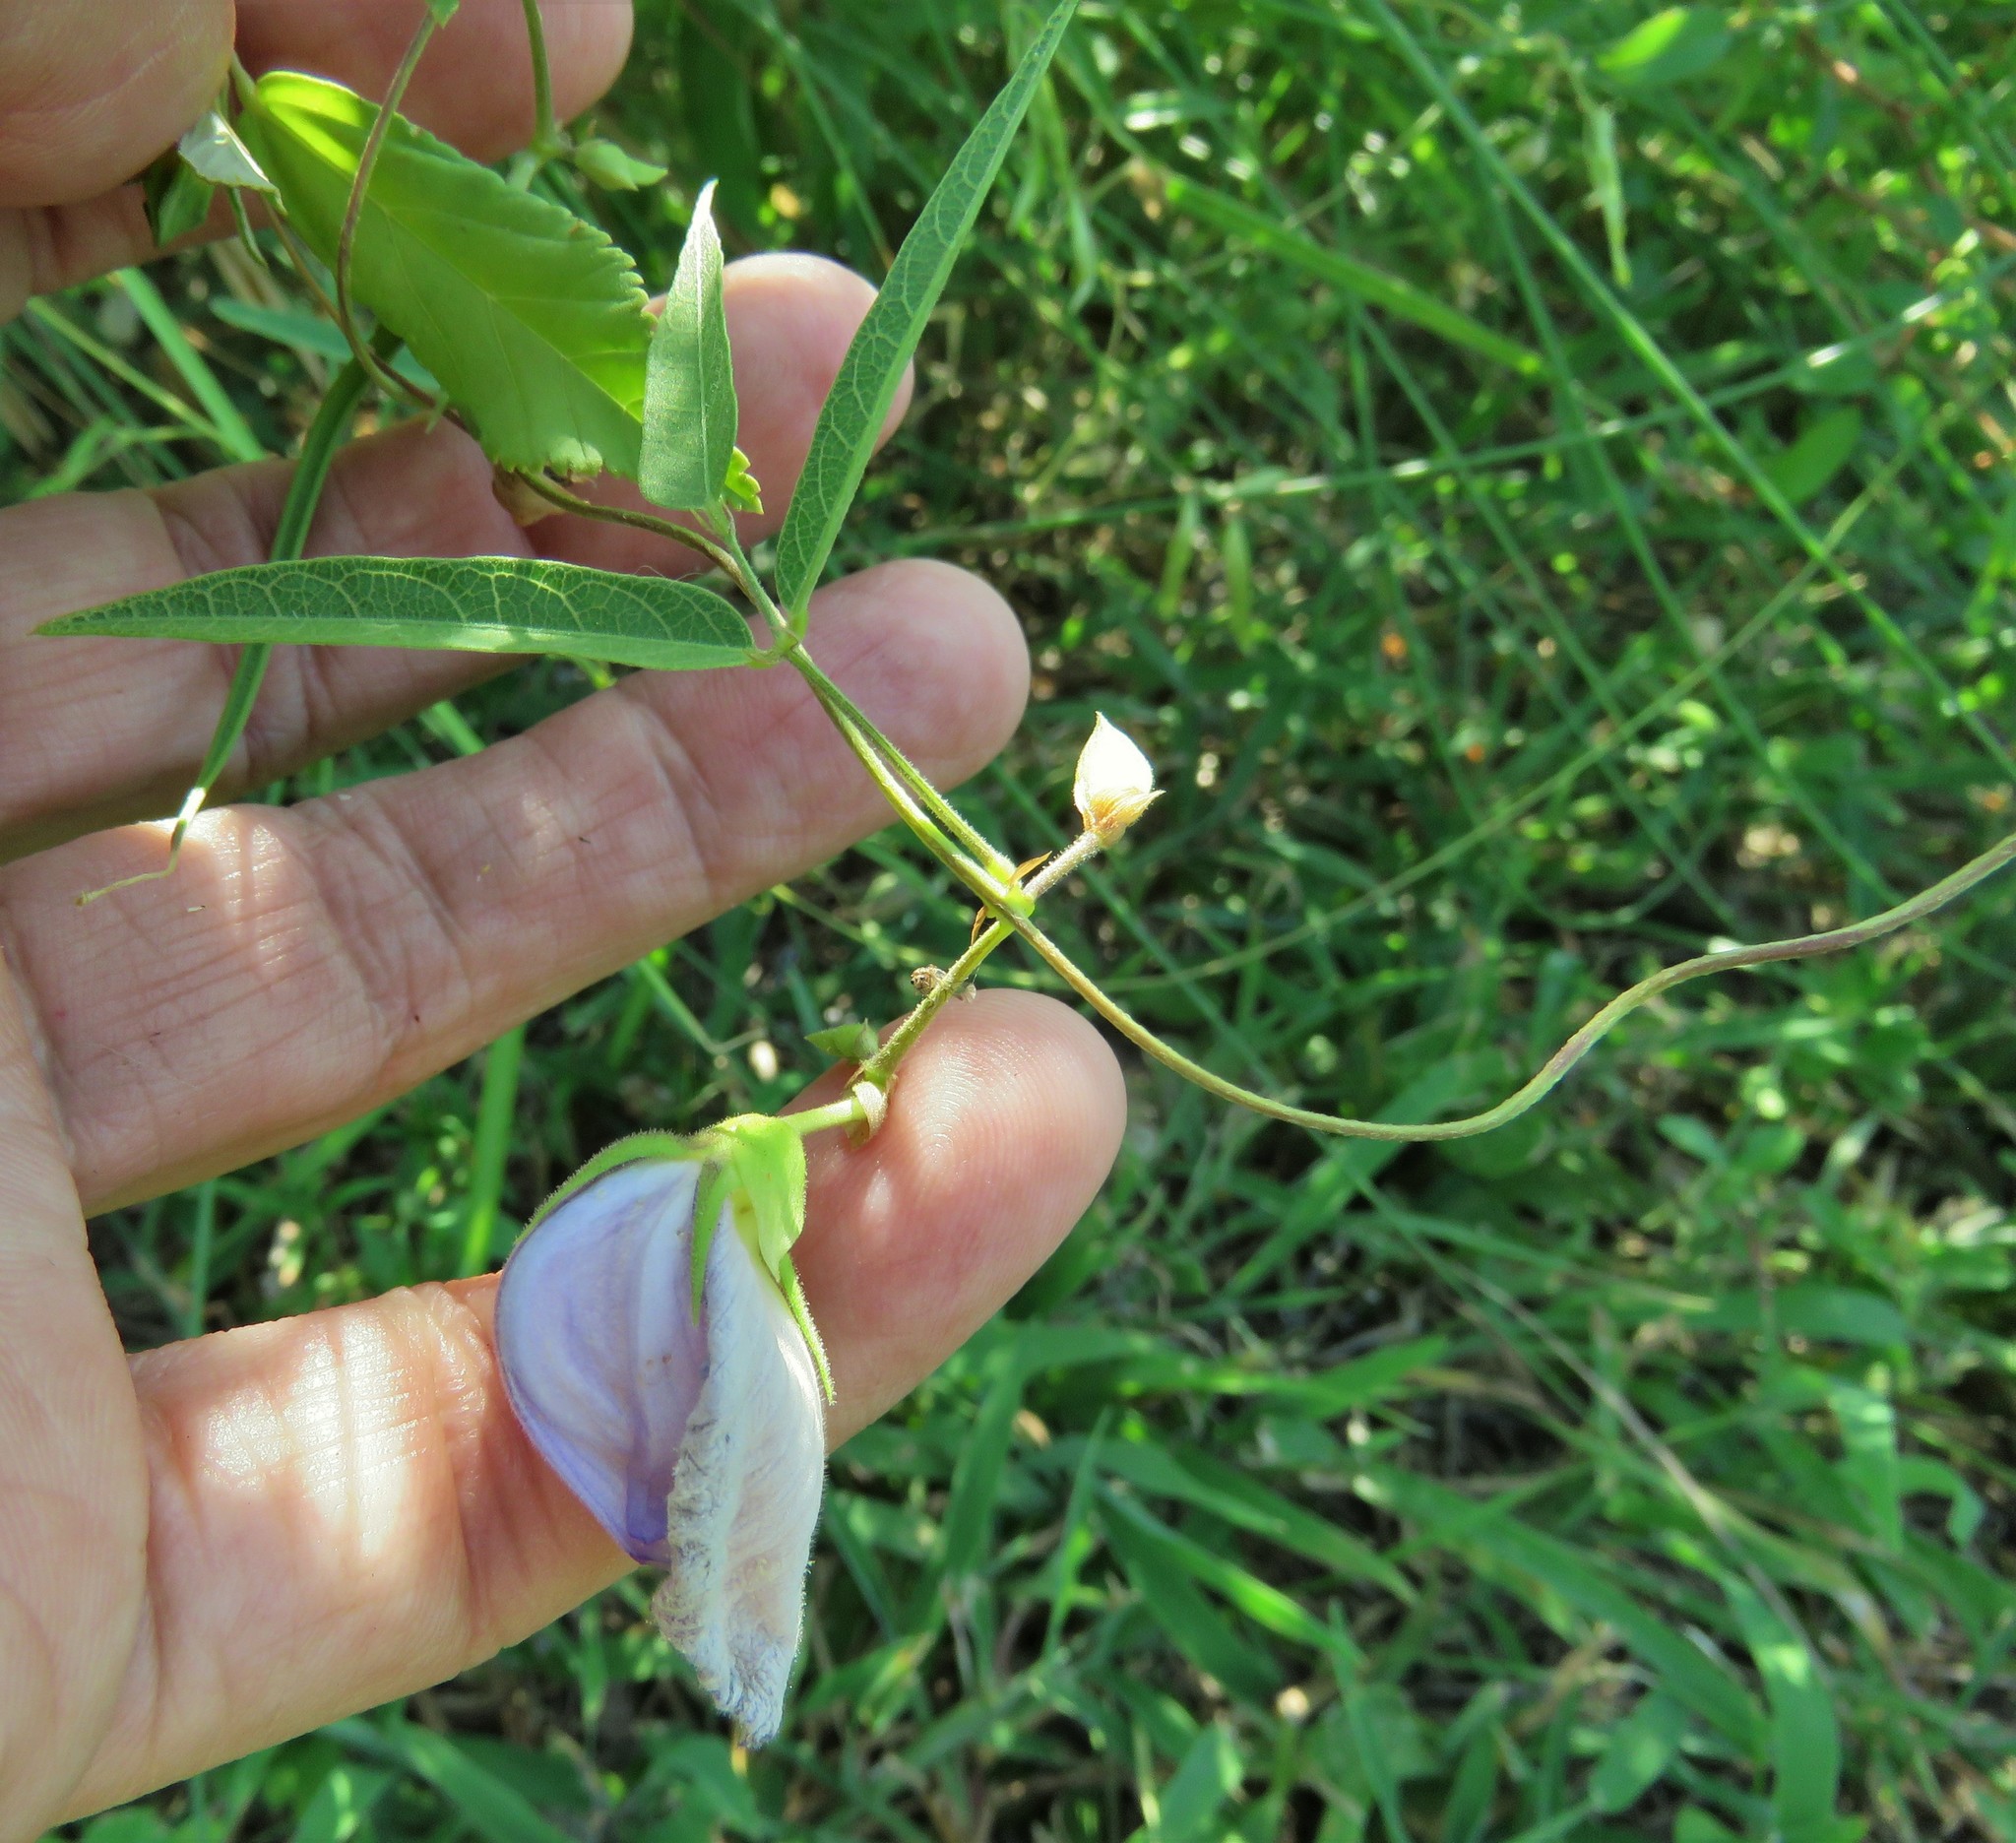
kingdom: Plantae
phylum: Tracheophyta
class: Magnoliopsida
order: Fabales
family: Fabaceae
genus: Centrosema
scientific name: Centrosema virginianum
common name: Butterfly-pea
